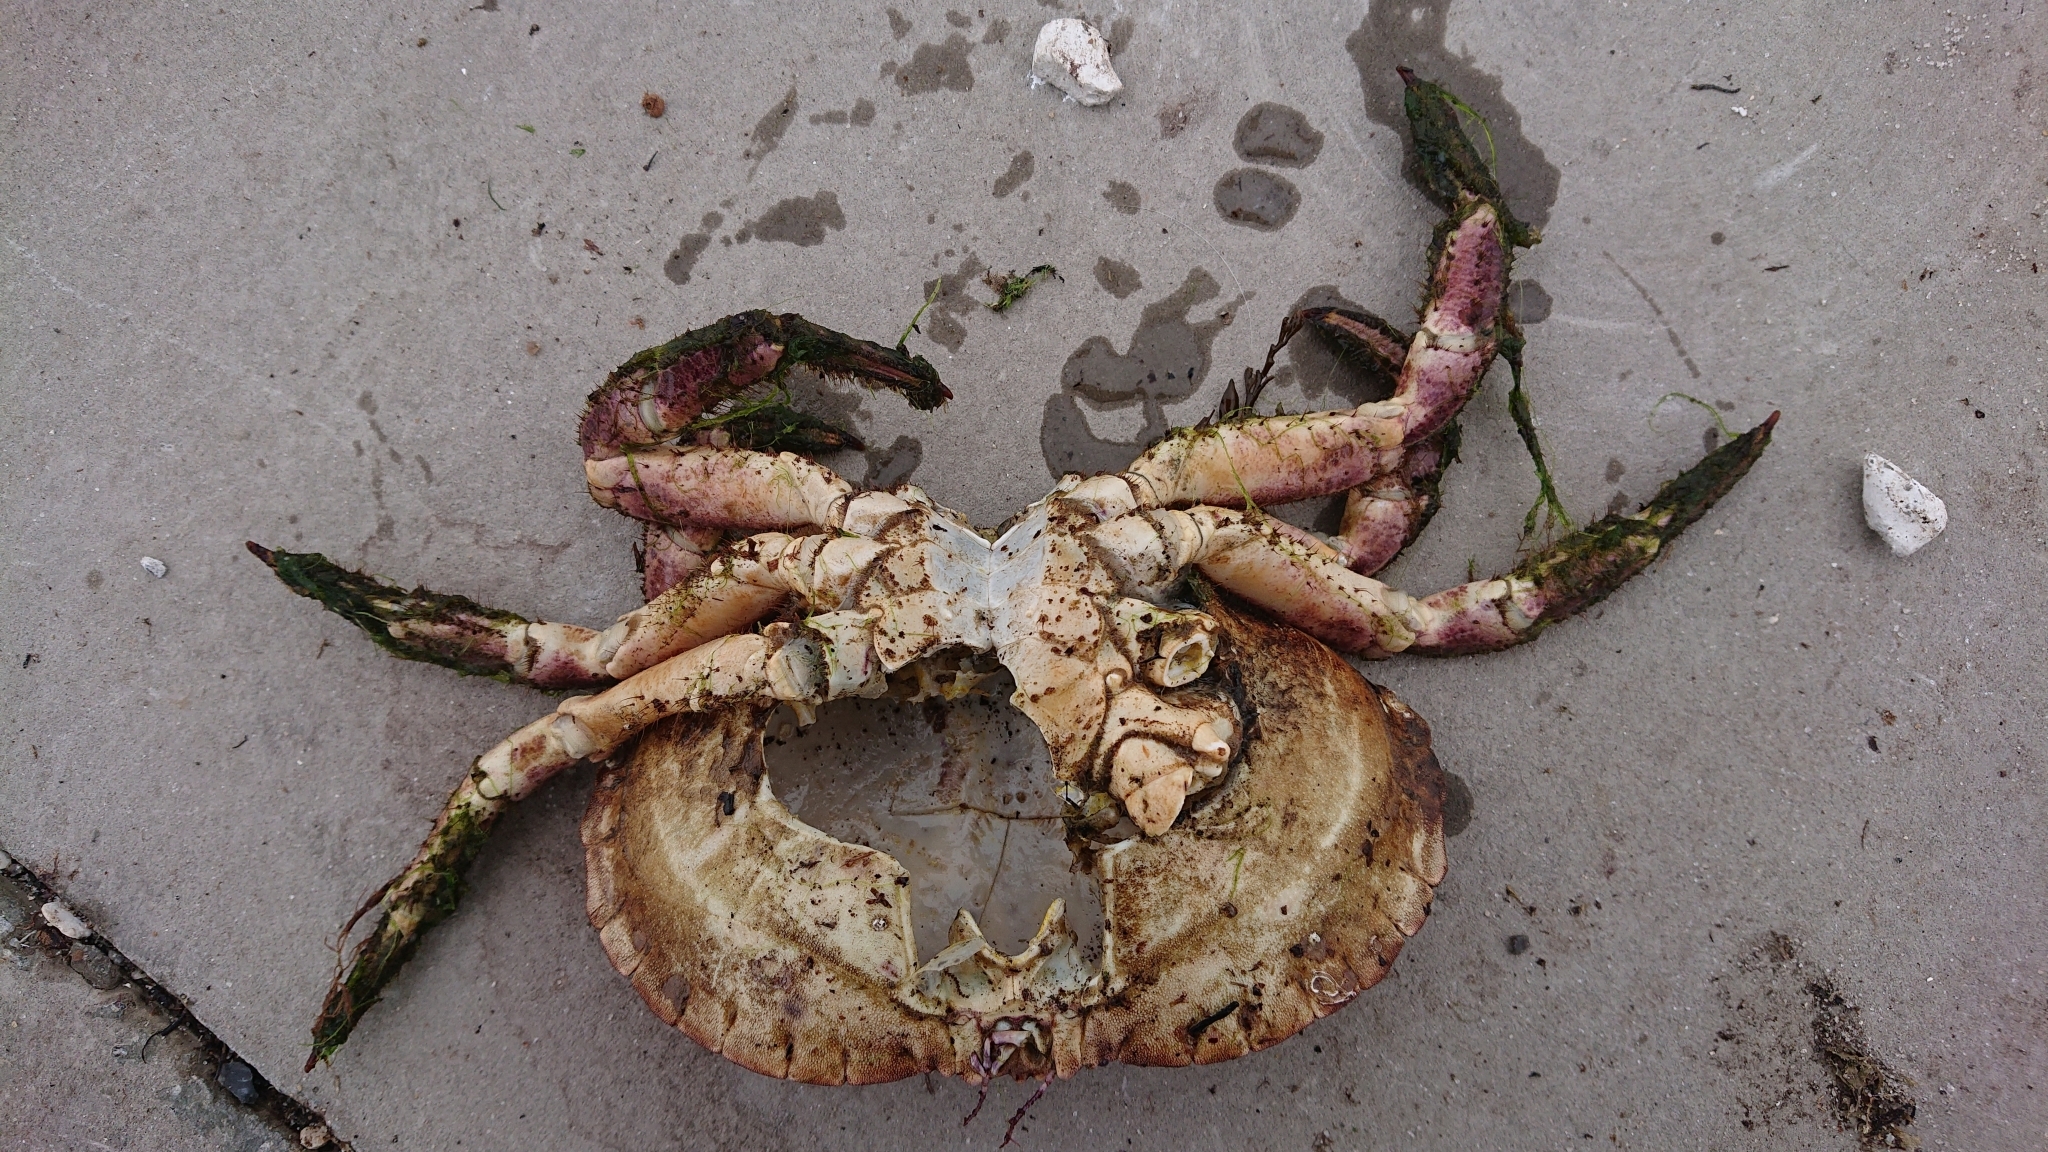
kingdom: Animalia
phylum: Arthropoda
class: Malacostraca
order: Decapoda
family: Cancridae
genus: Cancer
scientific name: Cancer pagurus
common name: Edible crab
